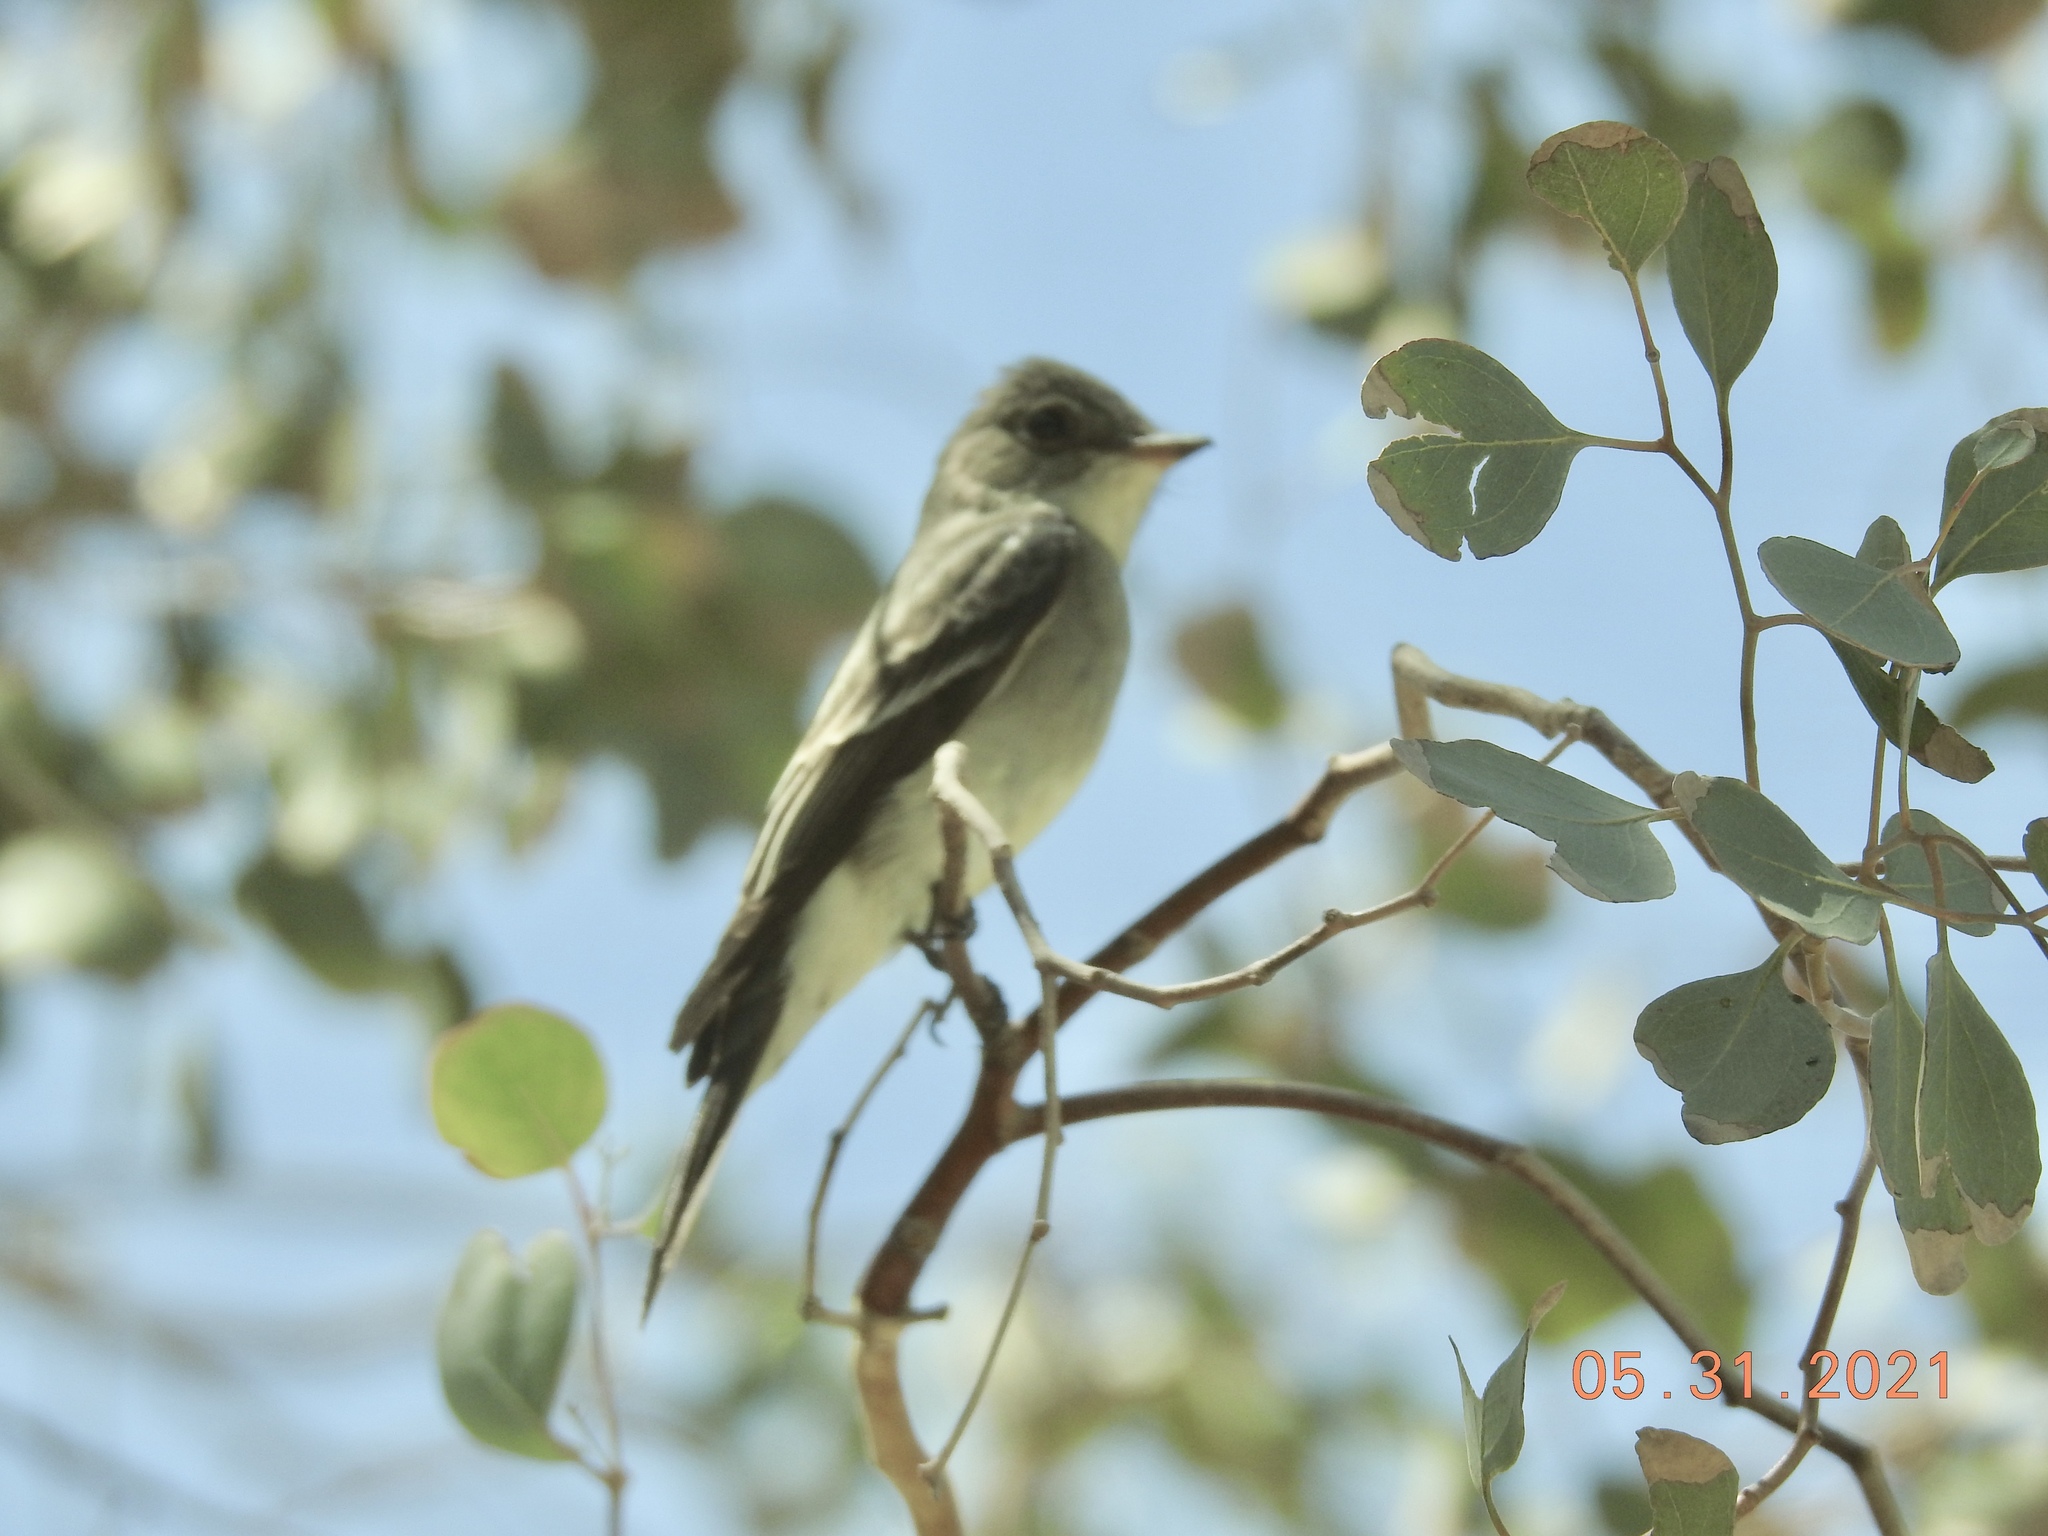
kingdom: Animalia
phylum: Chordata
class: Aves
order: Passeriformes
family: Tyrannidae
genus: Contopus
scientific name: Contopus sordidulus
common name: Western wood-pewee
